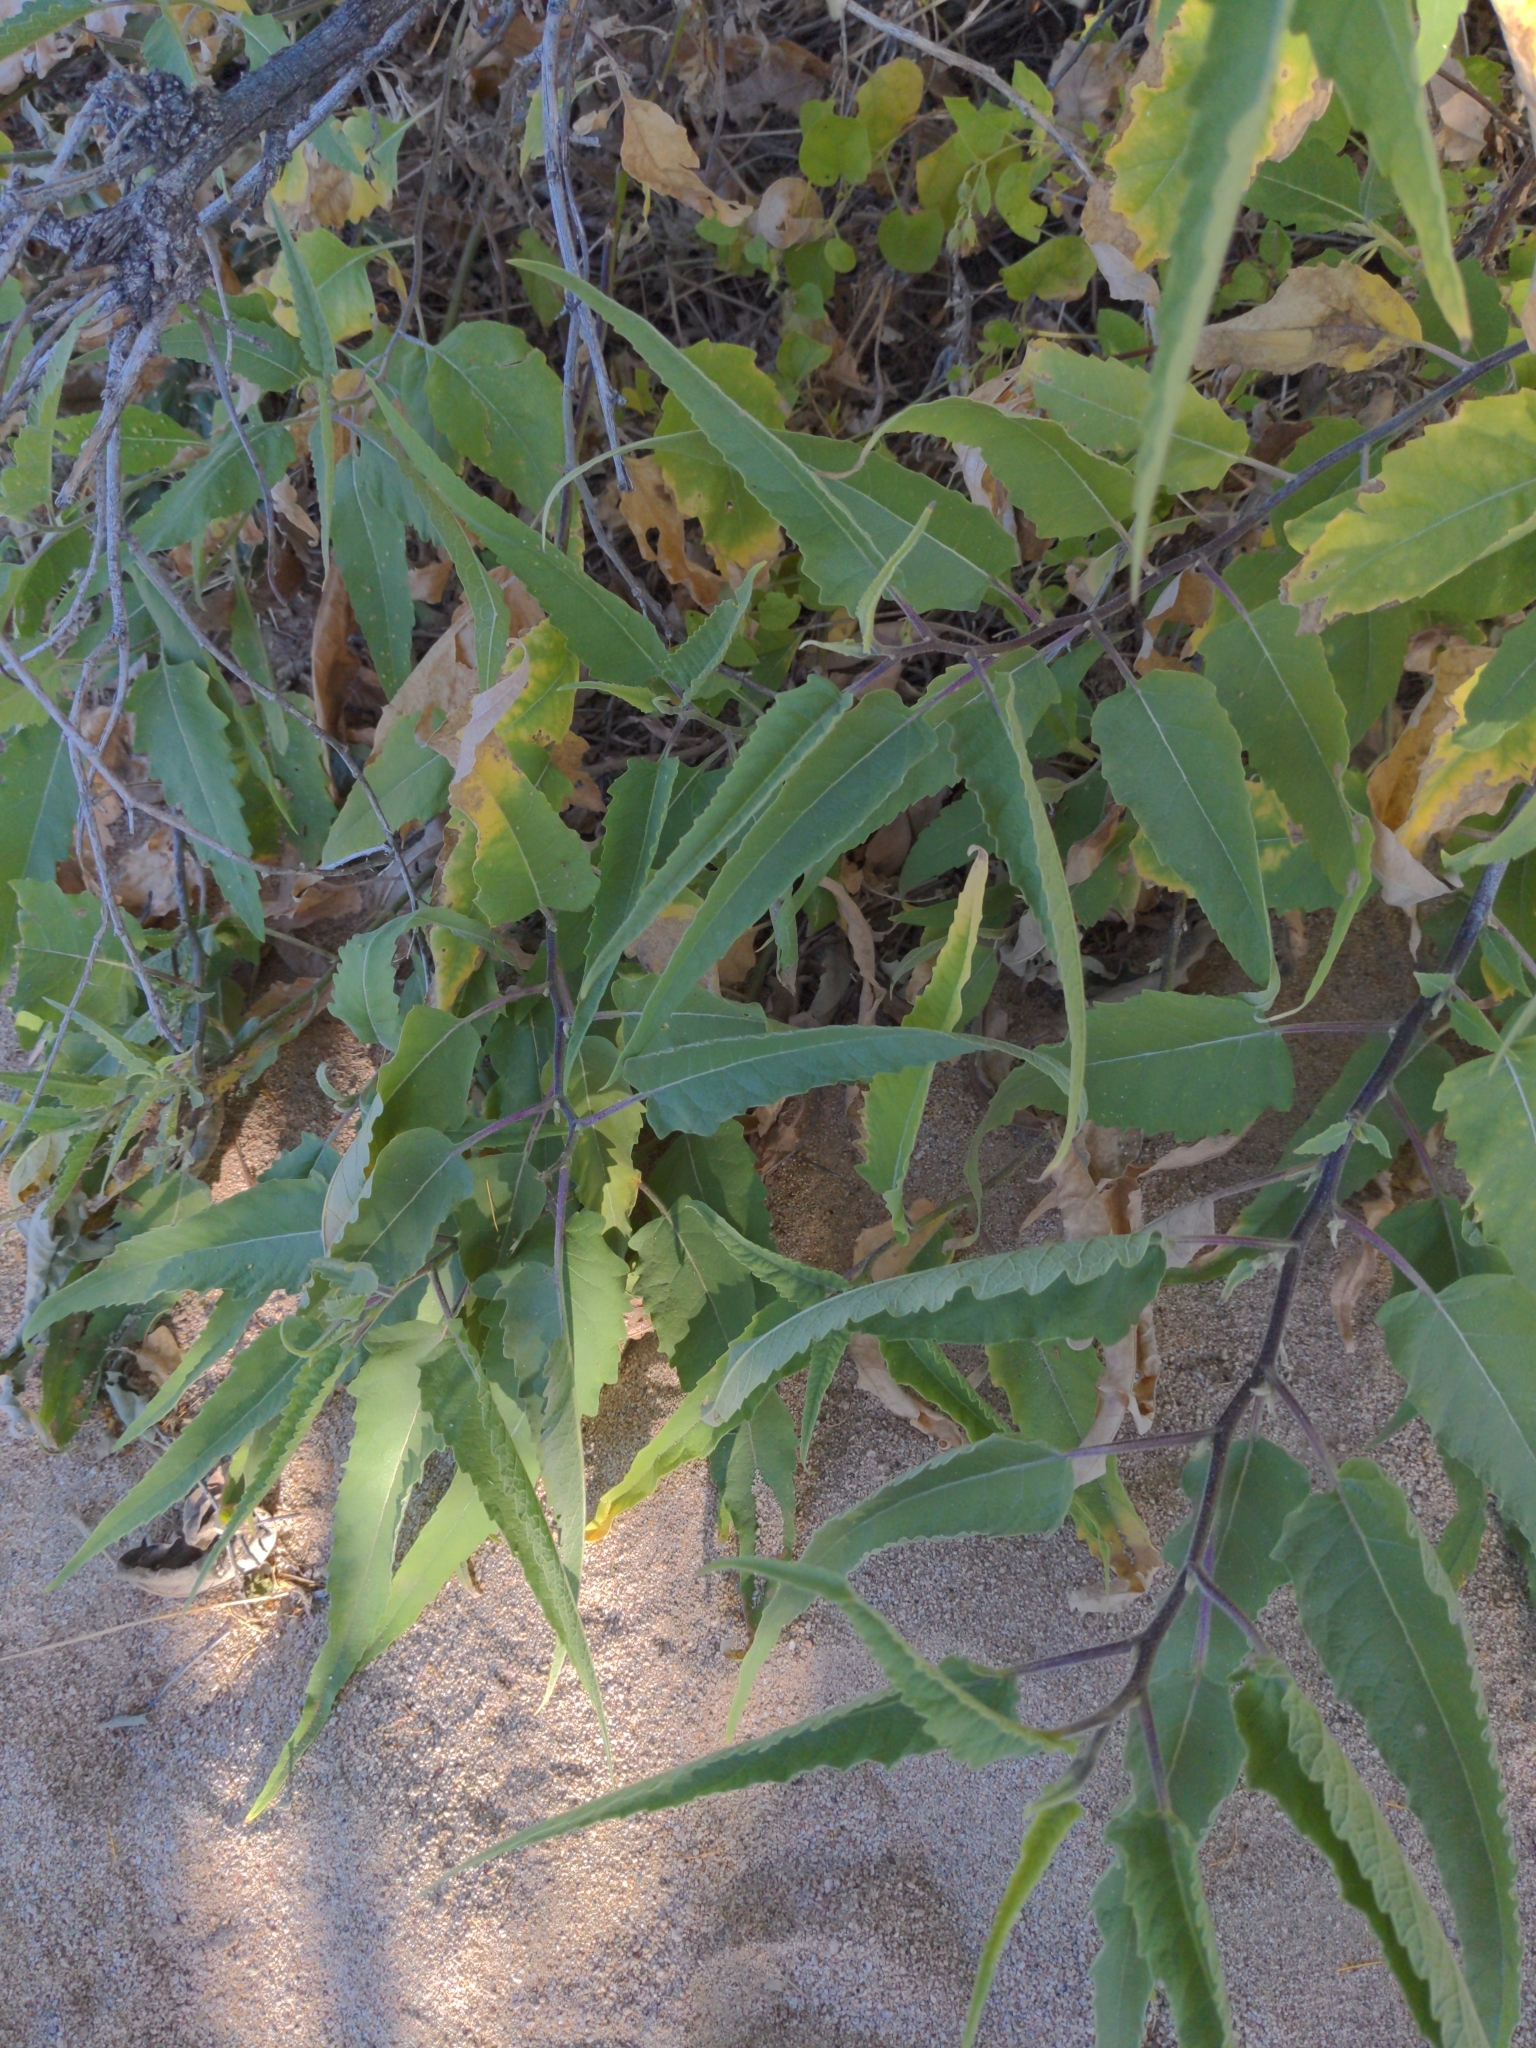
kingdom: Plantae
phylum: Tracheophyta
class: Magnoliopsida
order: Asterales
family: Asteraceae
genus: Ambrosia
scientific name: Ambrosia ambrosioides
